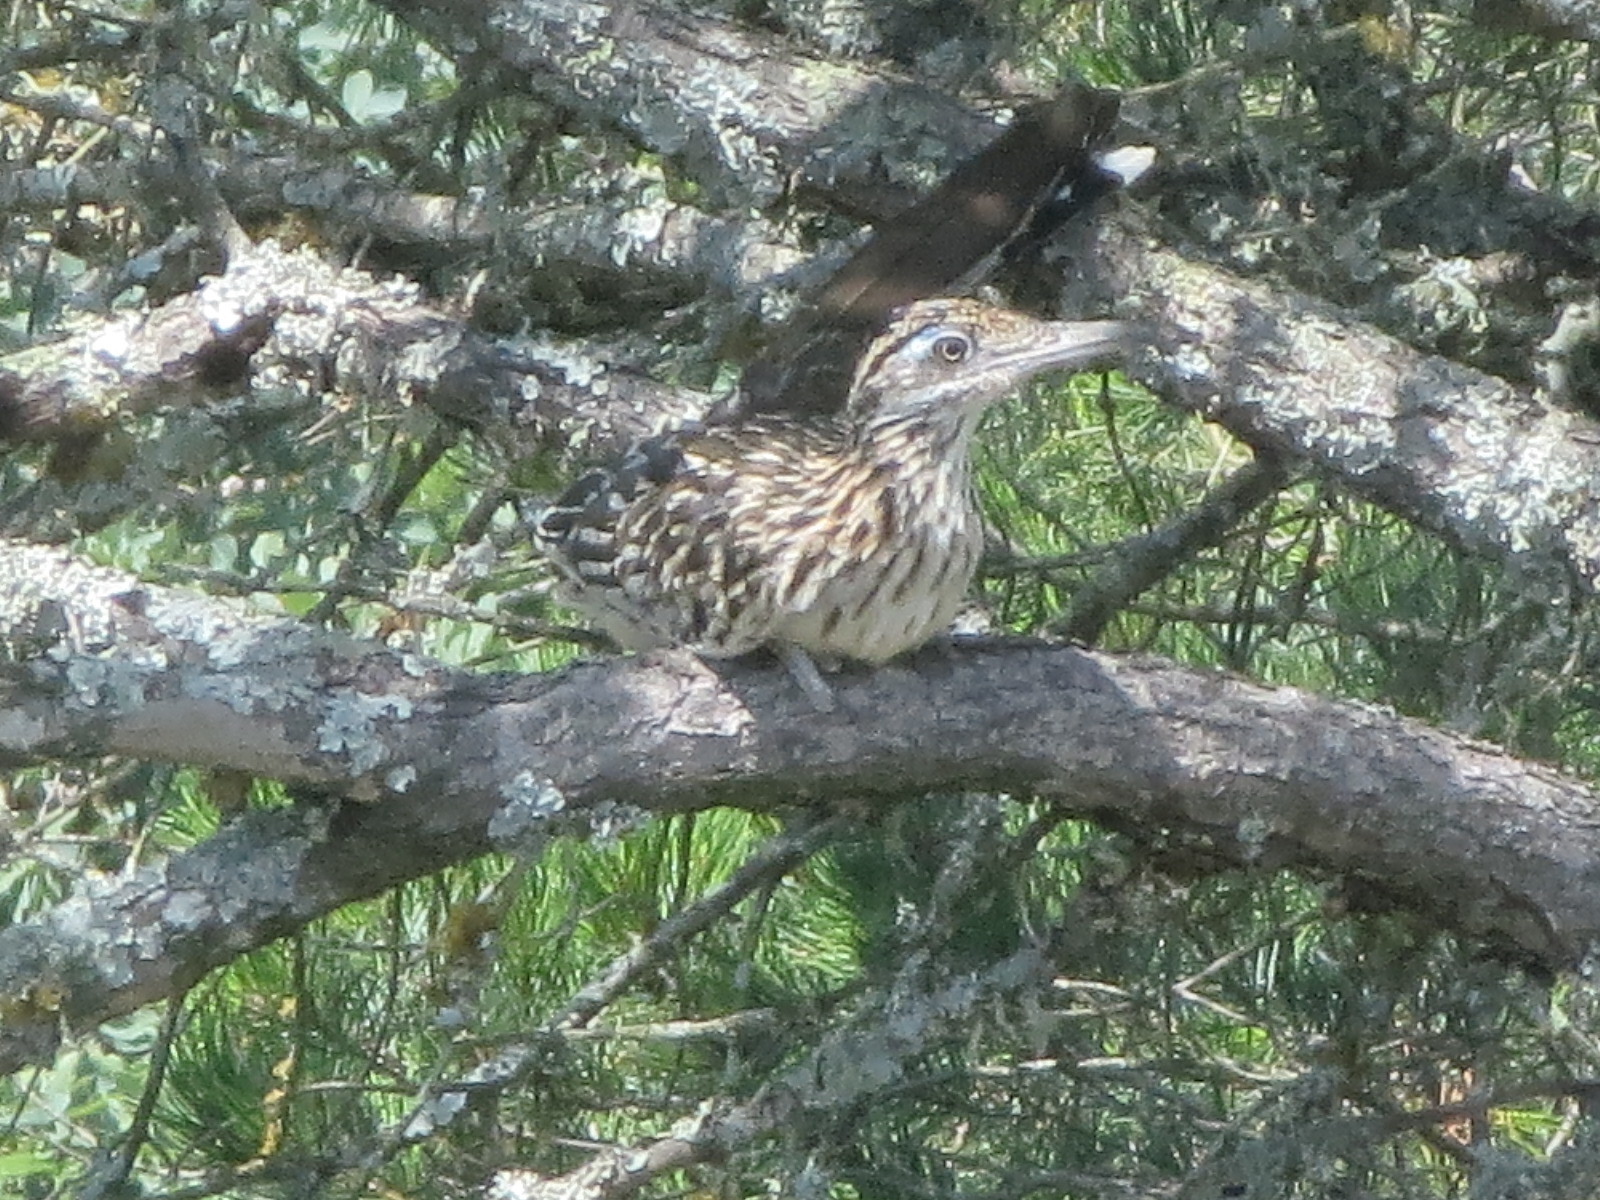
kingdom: Animalia
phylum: Chordata
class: Aves
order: Cuculiformes
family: Cuculidae
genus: Geococcyx
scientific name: Geococcyx californianus
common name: Greater roadrunner
